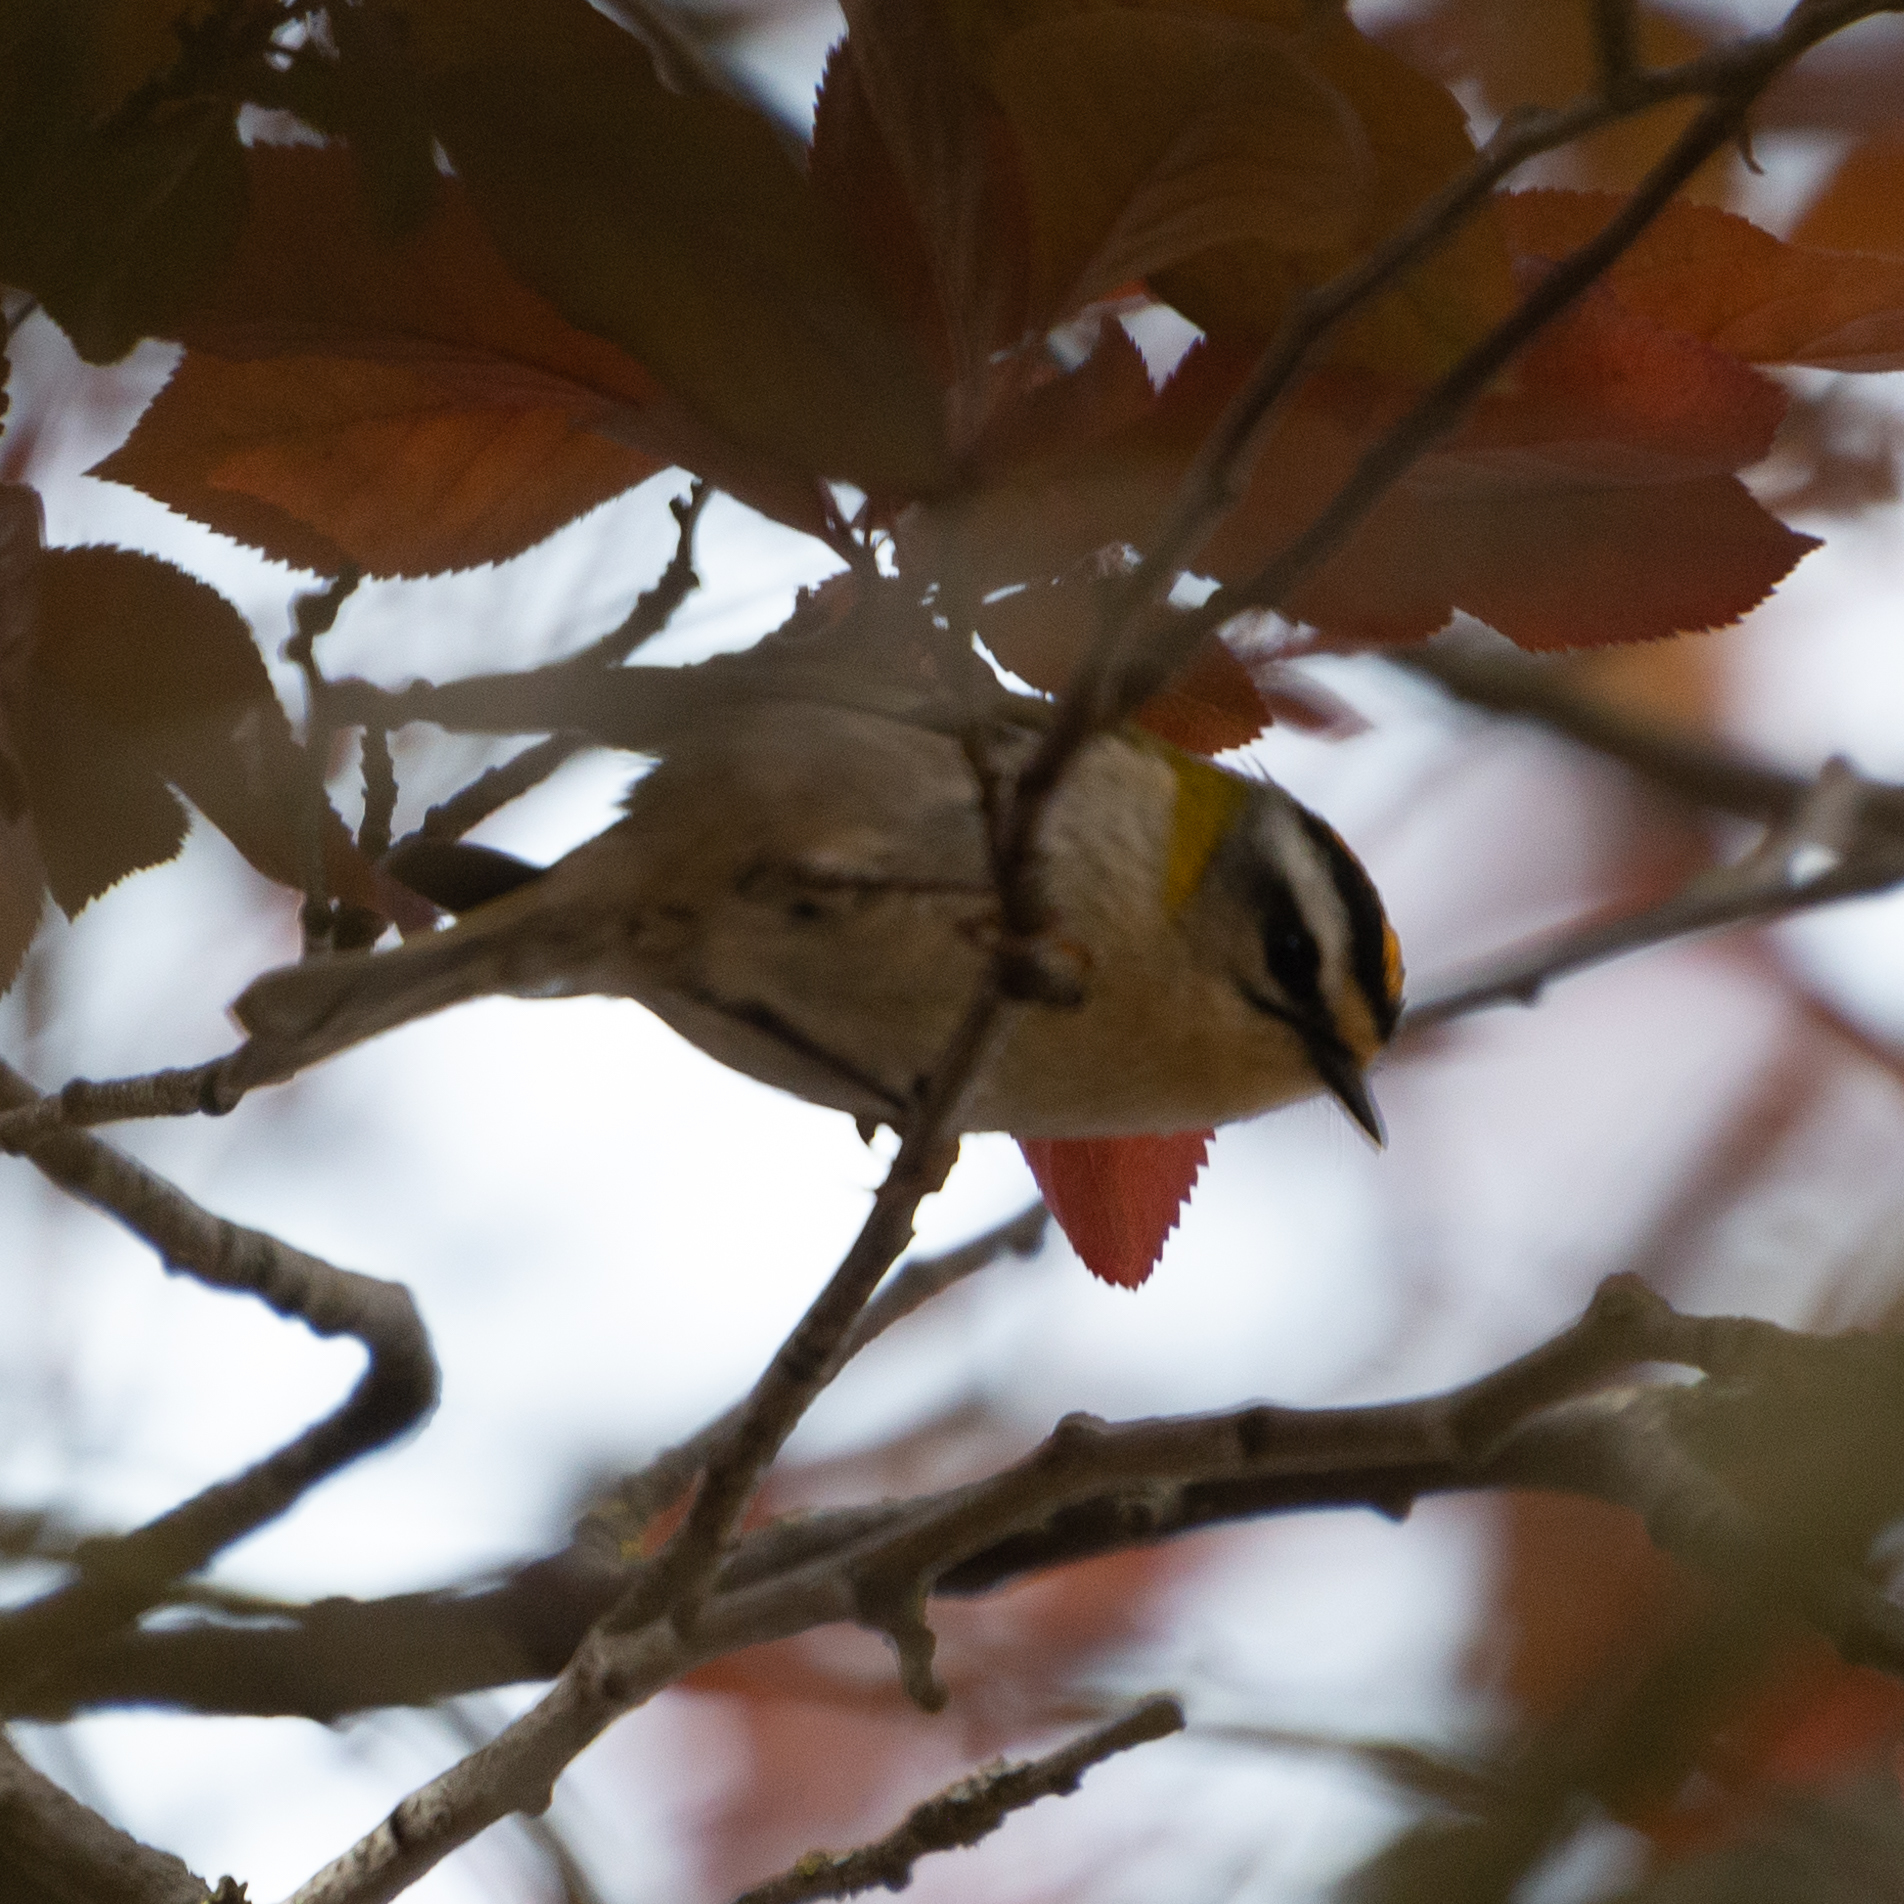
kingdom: Animalia
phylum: Chordata
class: Aves
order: Passeriformes
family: Regulidae
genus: Regulus
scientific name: Regulus ignicapilla
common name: Firecrest
